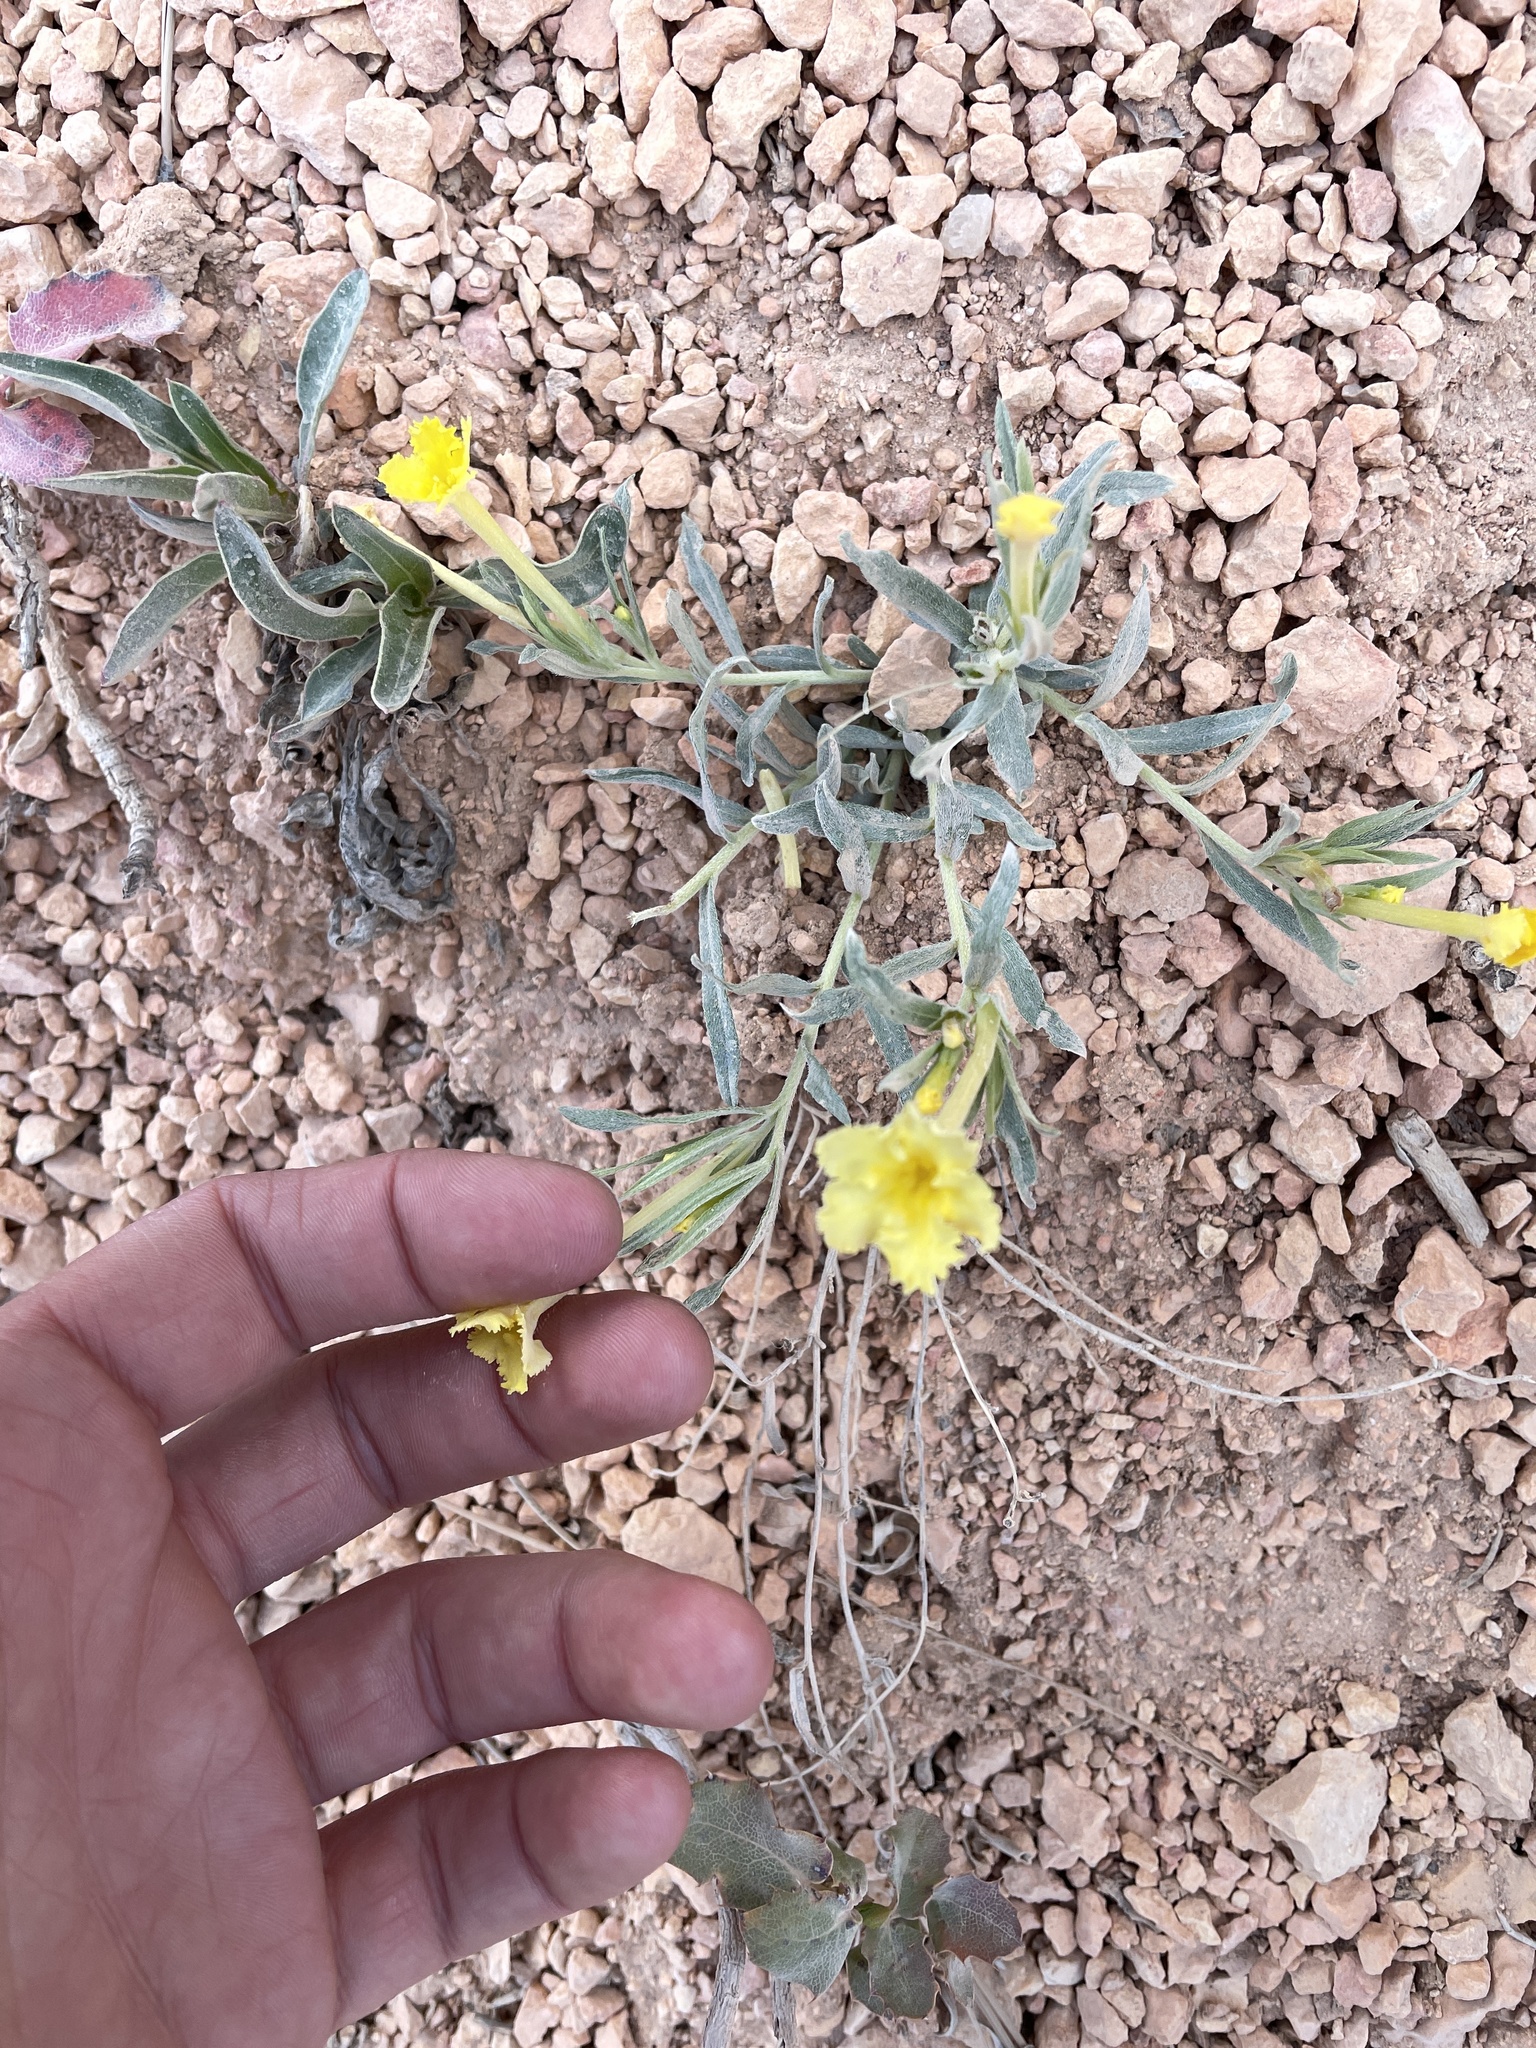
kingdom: Plantae
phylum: Tracheophyta
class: Magnoliopsida
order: Boraginales
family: Boraginaceae
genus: Lithospermum
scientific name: Lithospermum incisum
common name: Fringed gromwell
